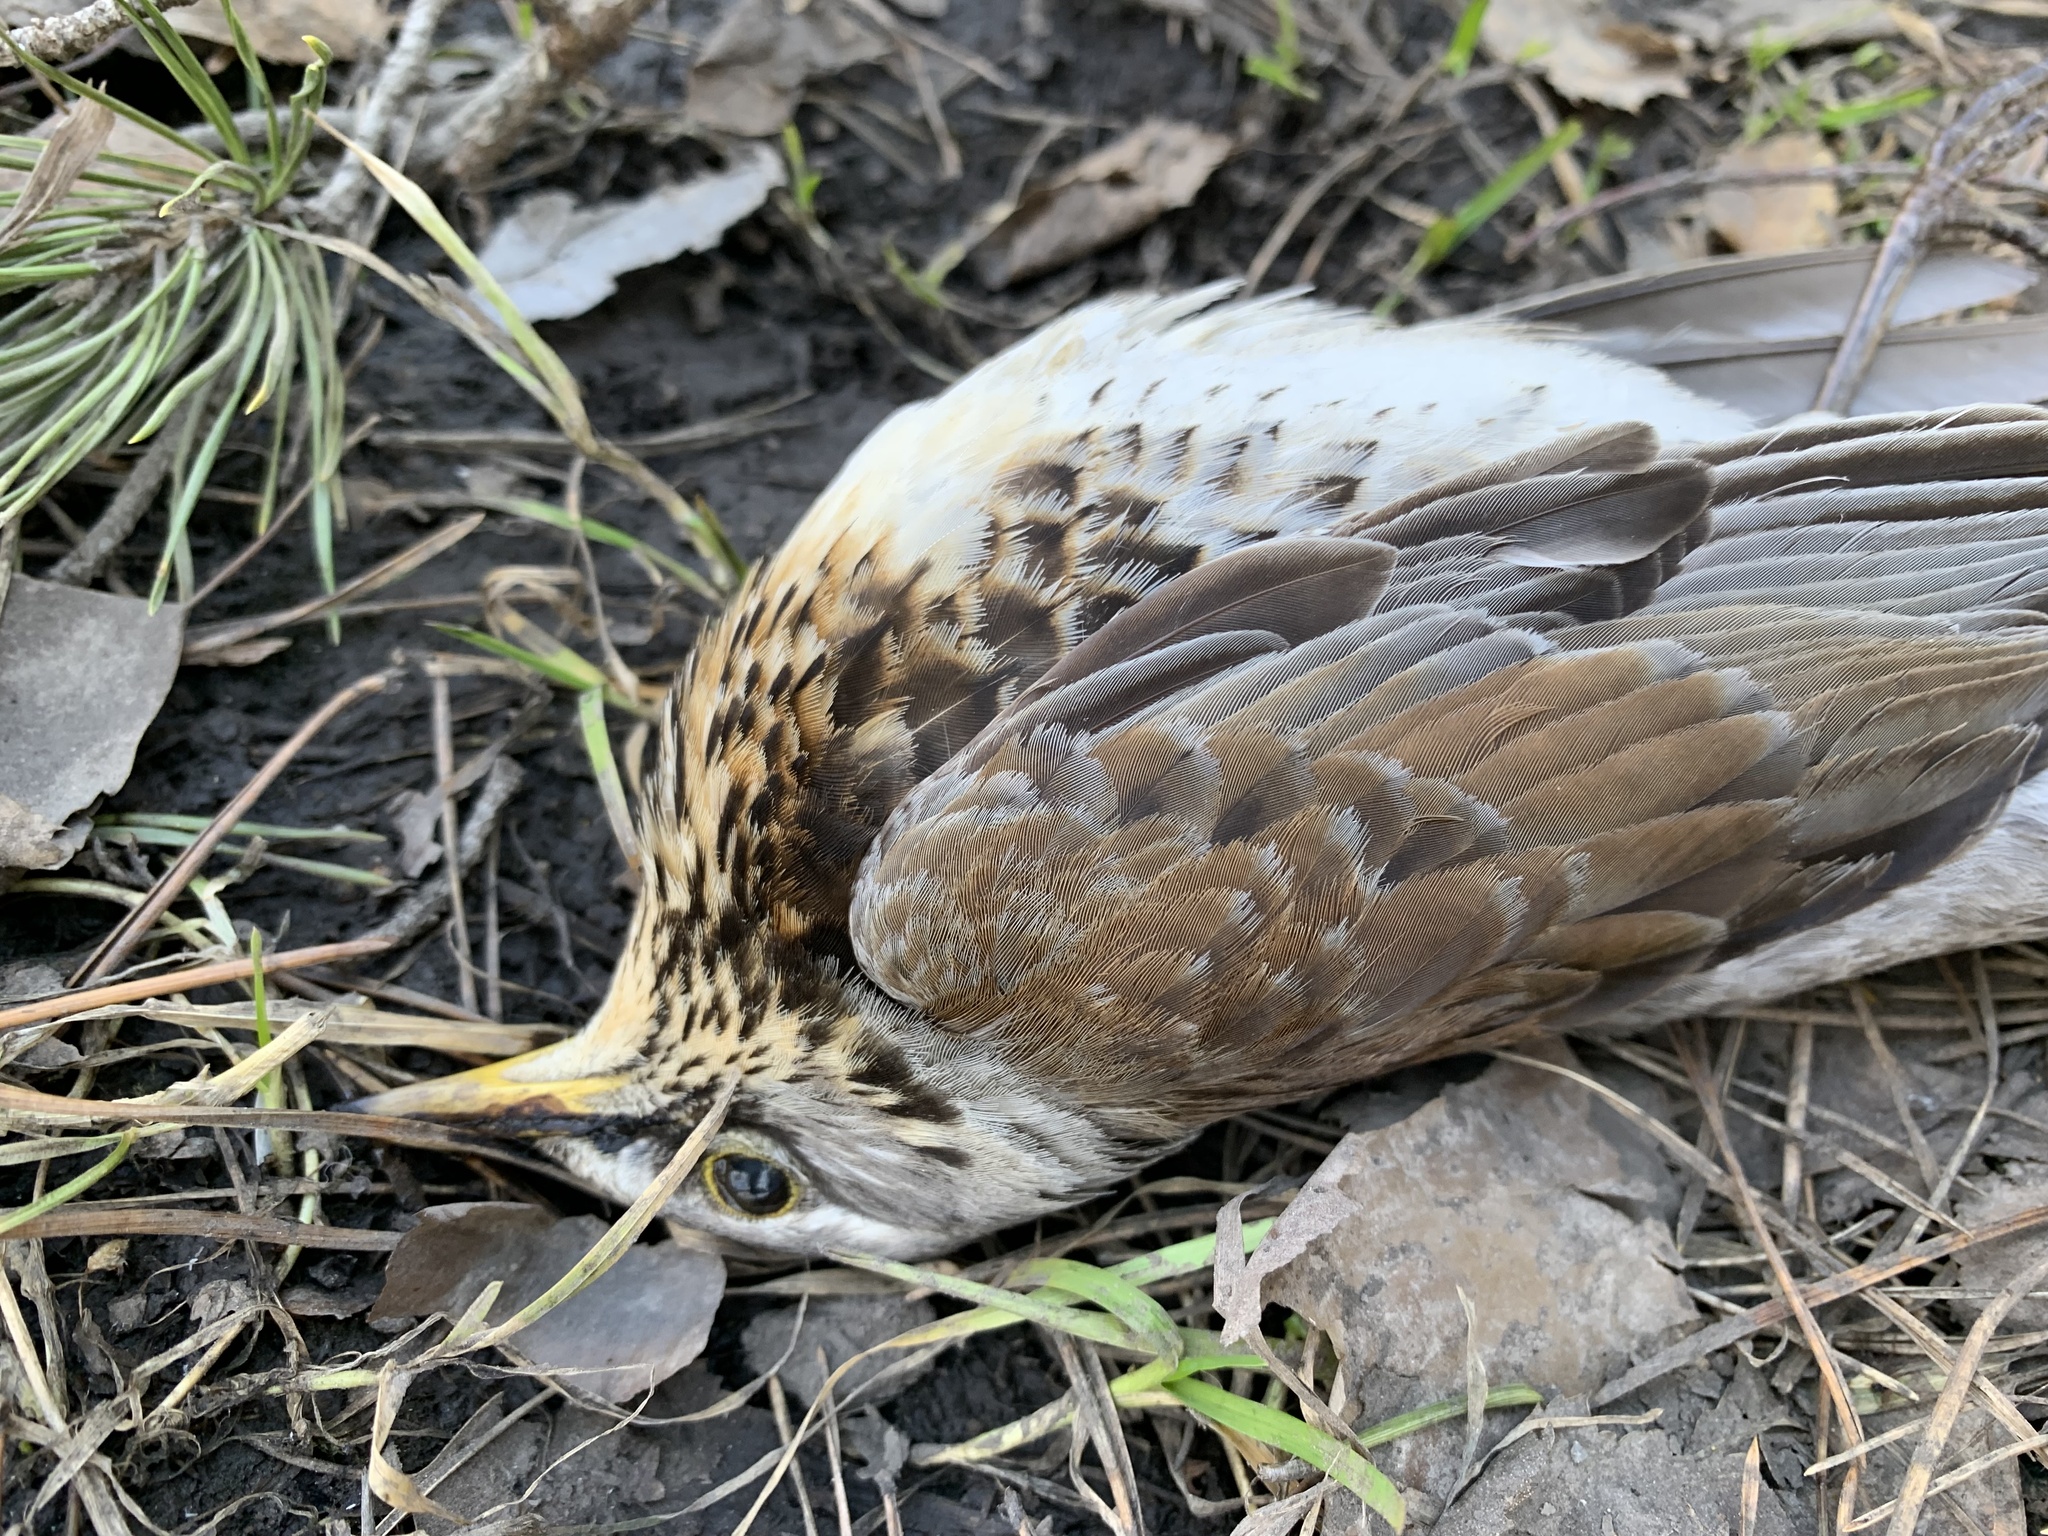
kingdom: Animalia
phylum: Chordata
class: Aves
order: Passeriformes
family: Turdidae
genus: Turdus
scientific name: Turdus pilaris
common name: Fieldfare
